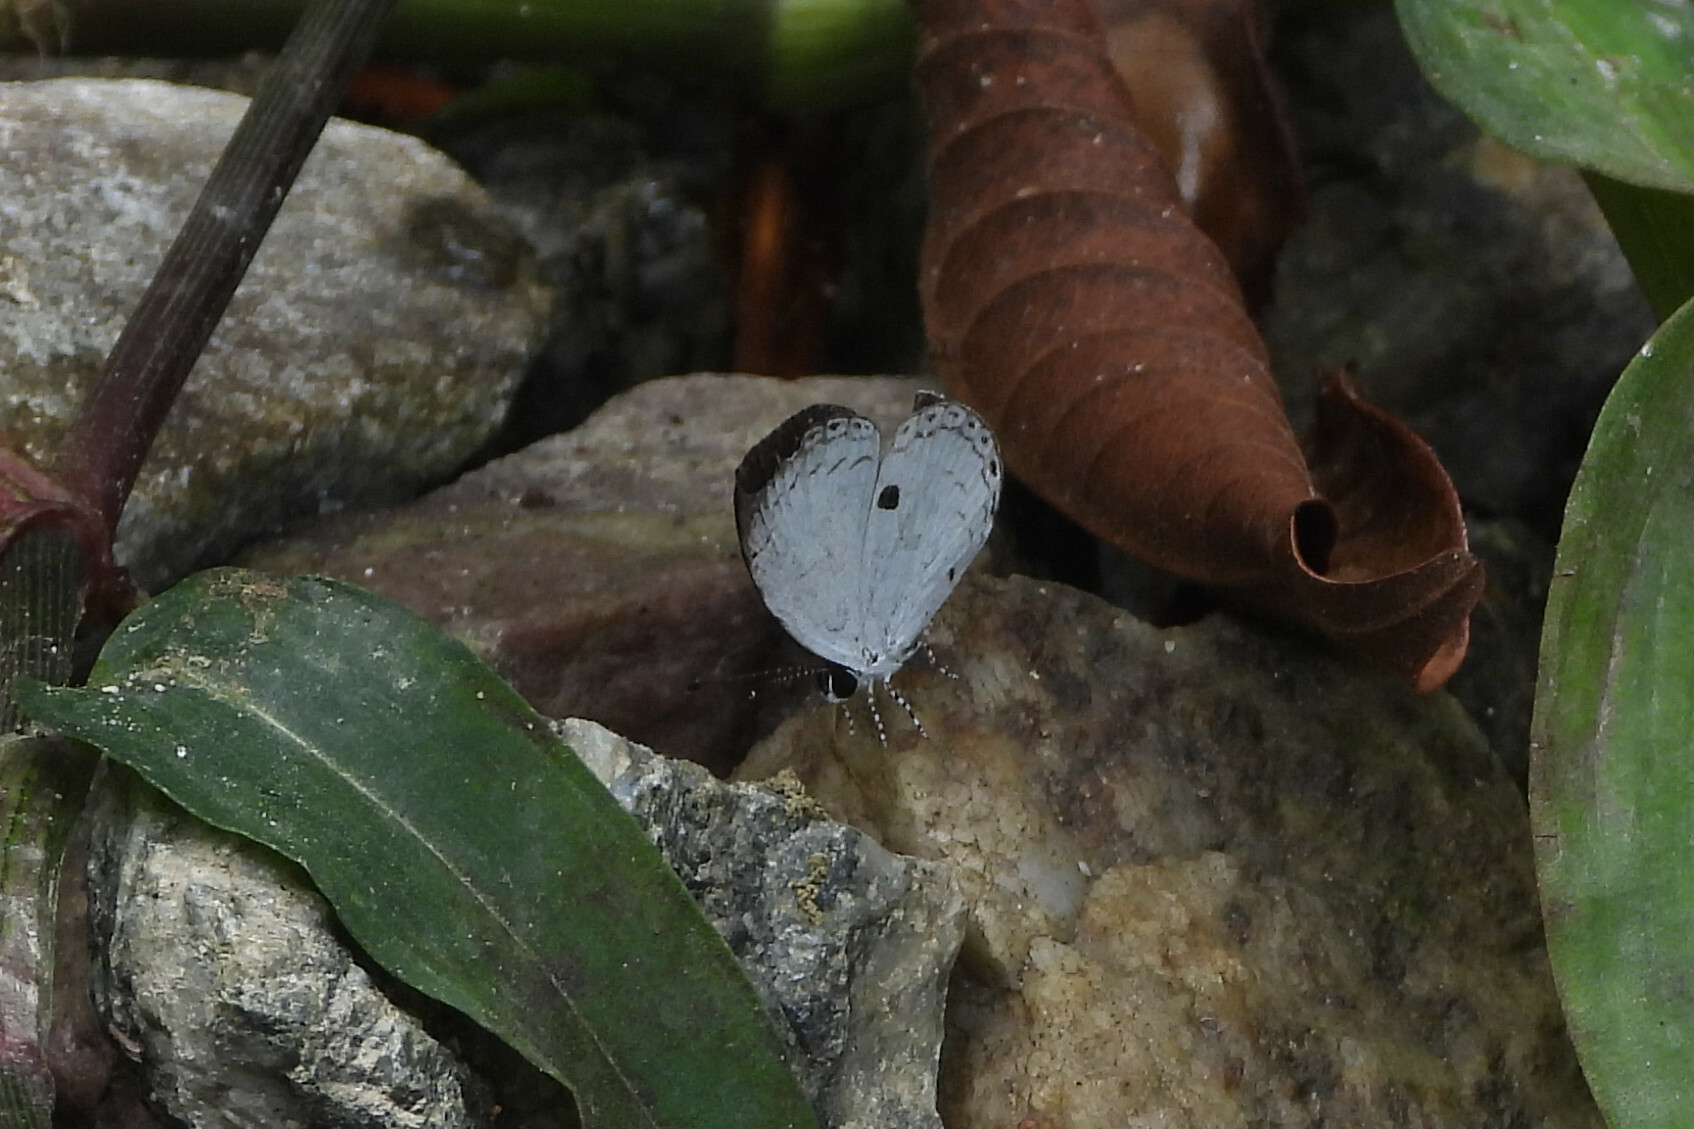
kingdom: Animalia
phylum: Arthropoda
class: Insecta
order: Lepidoptera
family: Lycaenidae
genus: Neopithecops
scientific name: Neopithecops zalmora
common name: Quaker
